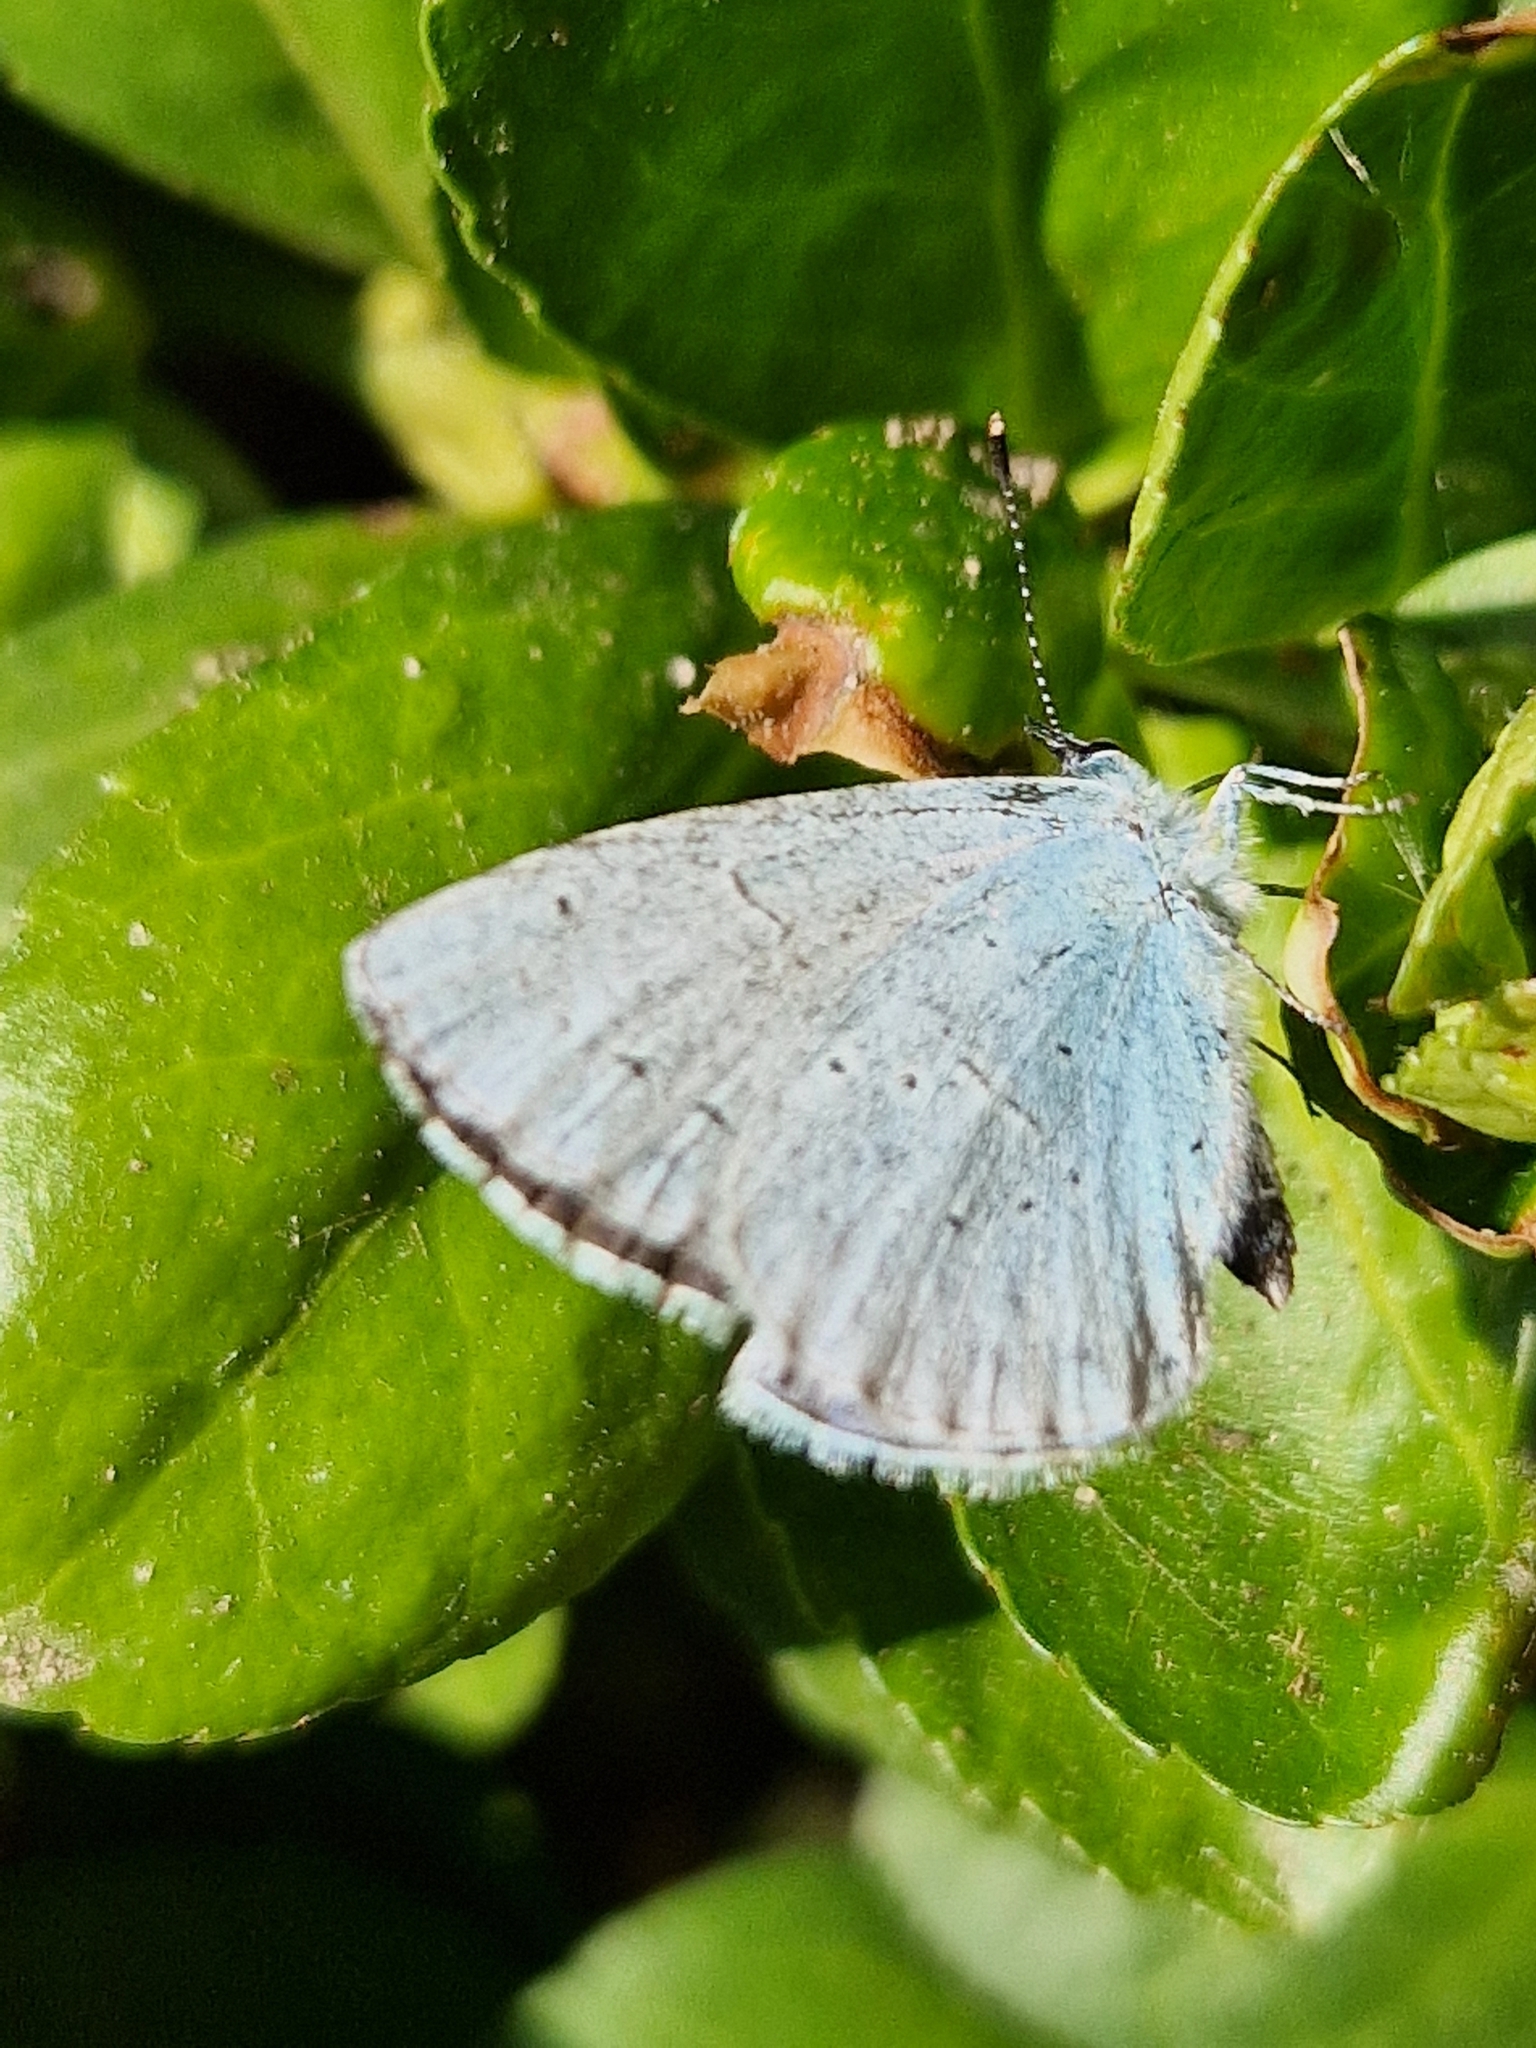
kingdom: Animalia
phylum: Arthropoda
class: Insecta
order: Lepidoptera
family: Lycaenidae
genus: Celastrina
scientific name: Celastrina argiolus
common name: Holly blue
